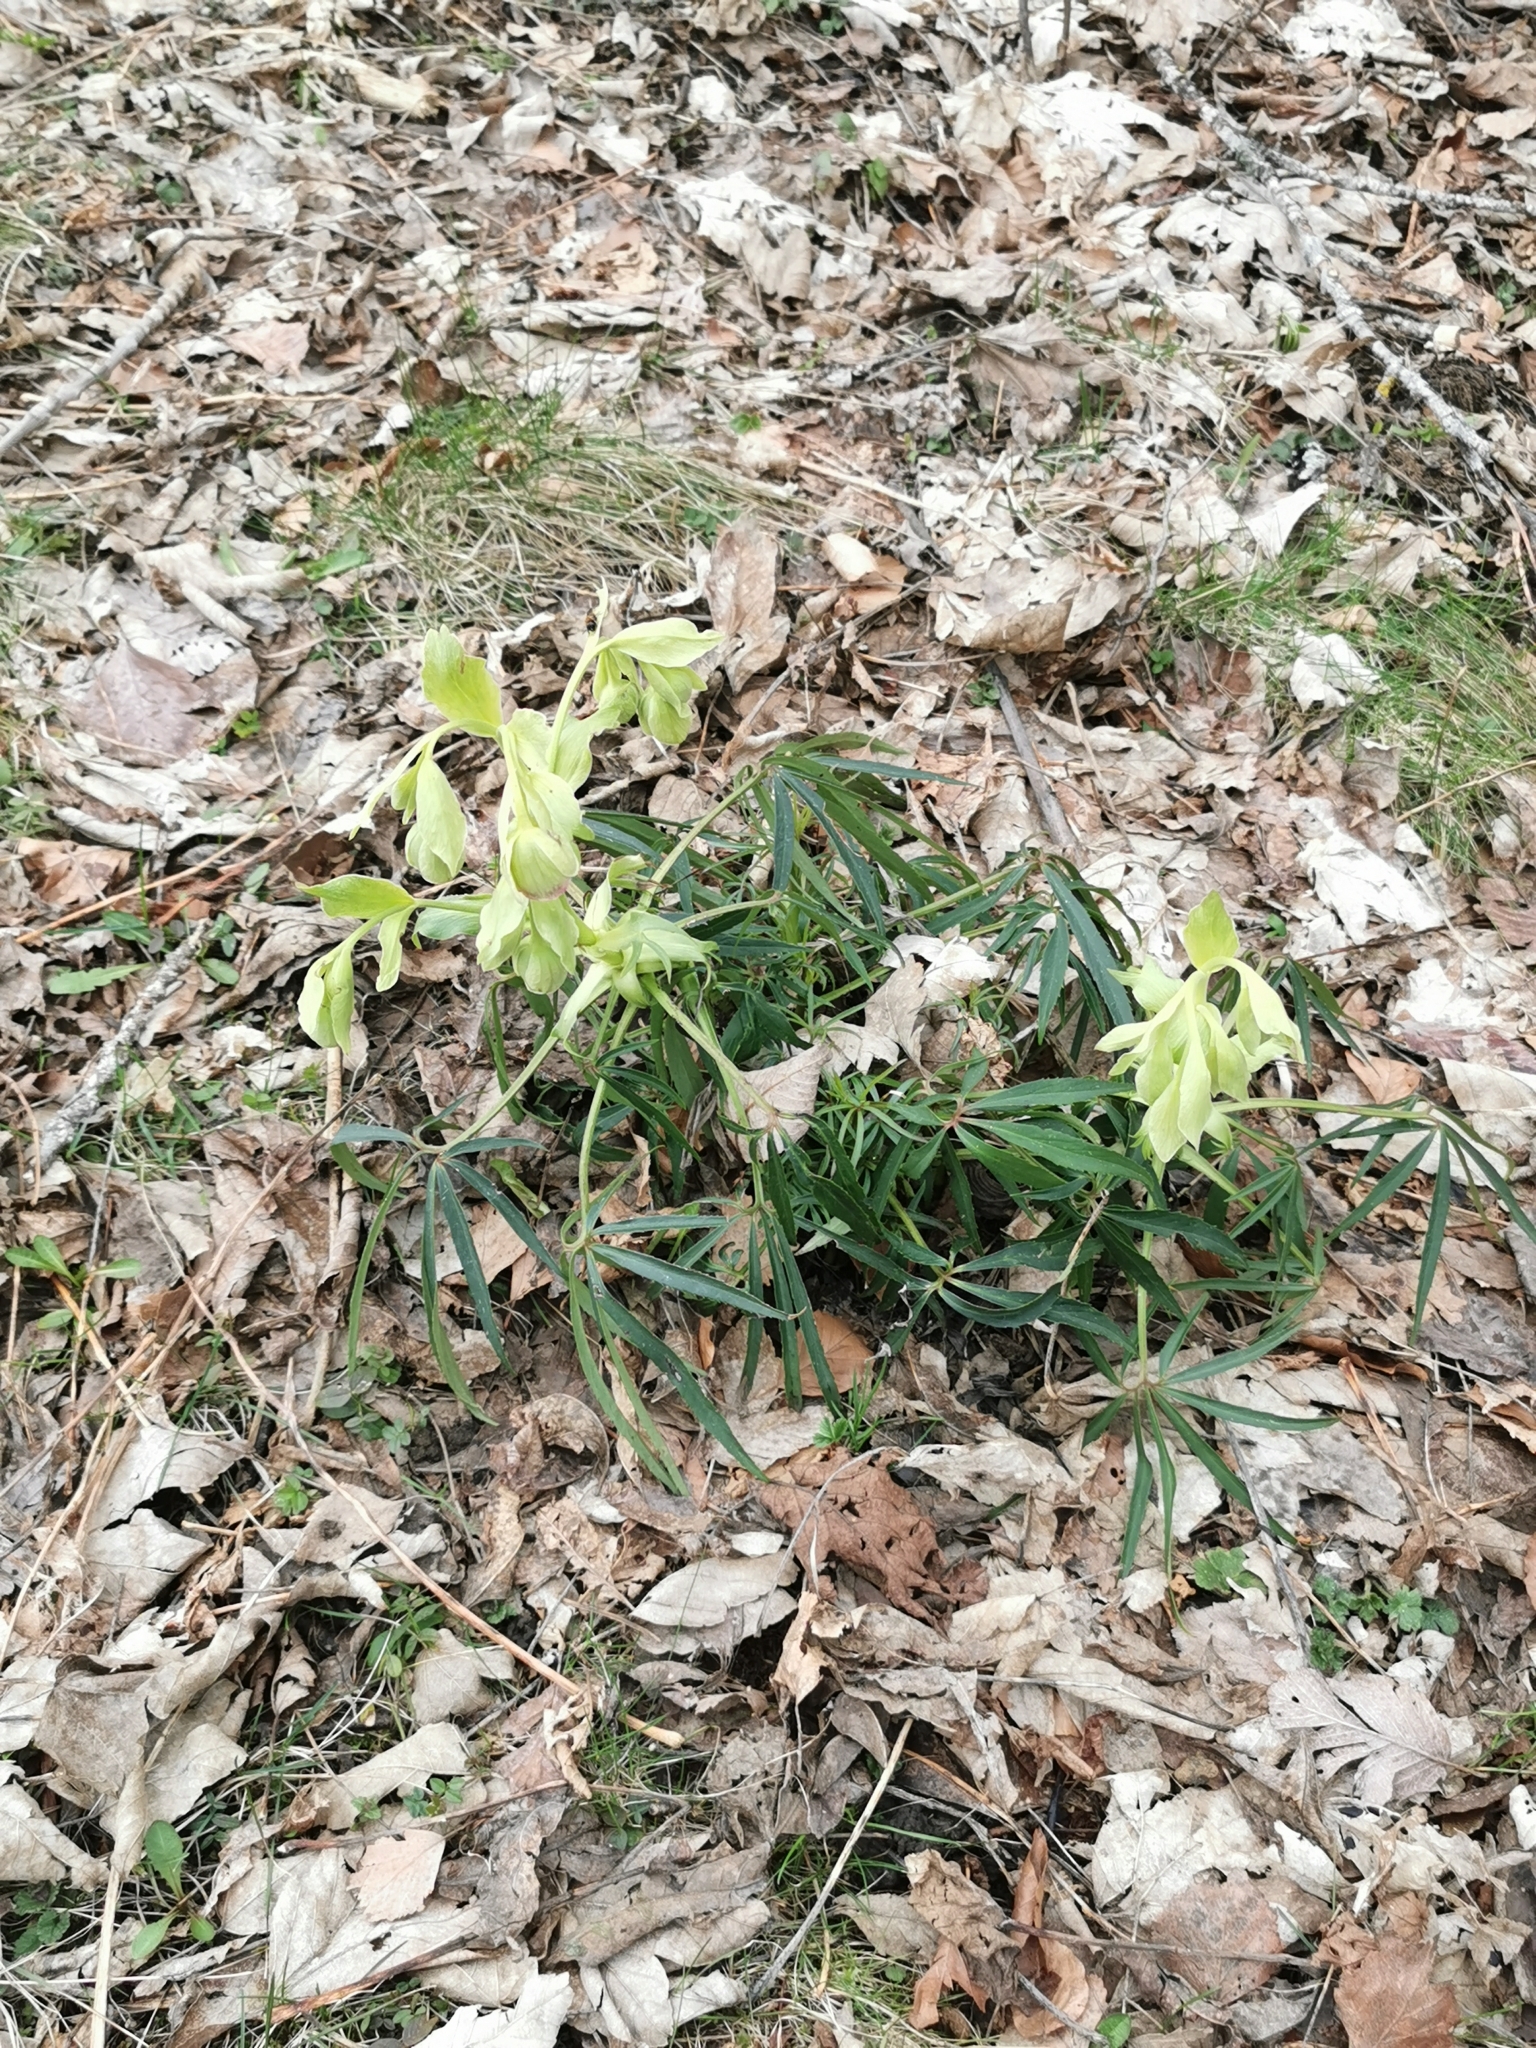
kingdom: Plantae
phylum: Tracheophyta
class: Magnoliopsida
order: Ranunculales
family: Ranunculaceae
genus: Helleborus
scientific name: Helleborus foetidus
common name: Stinking hellebore
